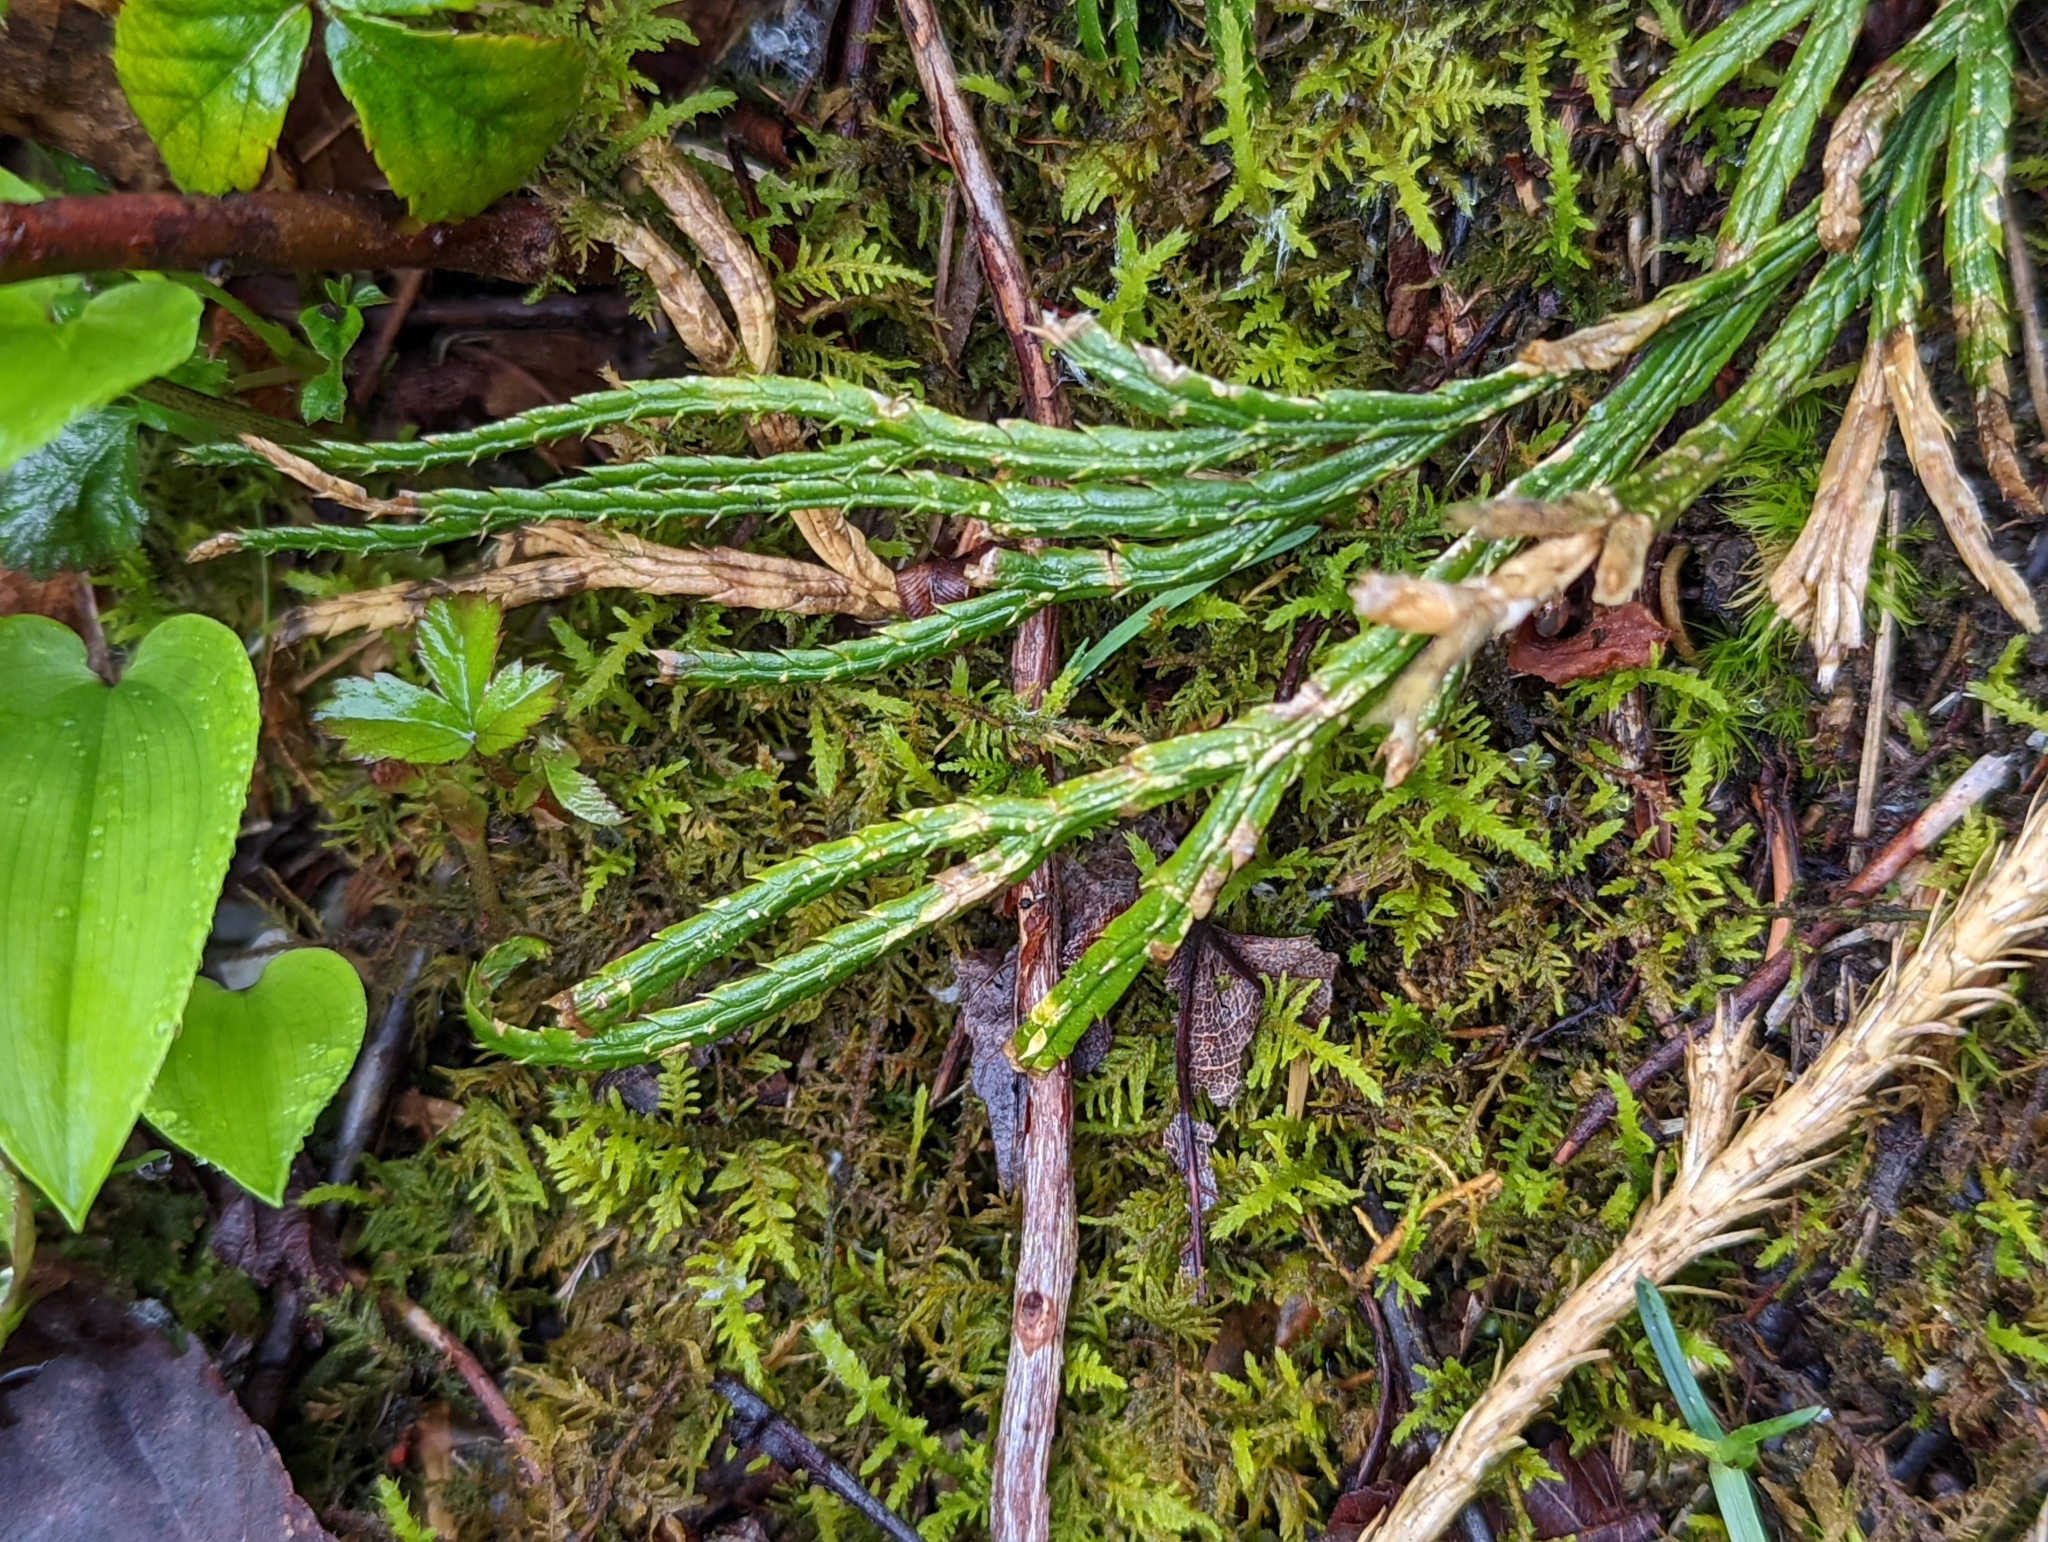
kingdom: Plantae
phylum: Tracheophyta
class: Lycopodiopsida
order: Lycopodiales
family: Lycopodiaceae
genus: Diphasiastrum
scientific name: Diphasiastrum digitatum
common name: Southern running-pine
